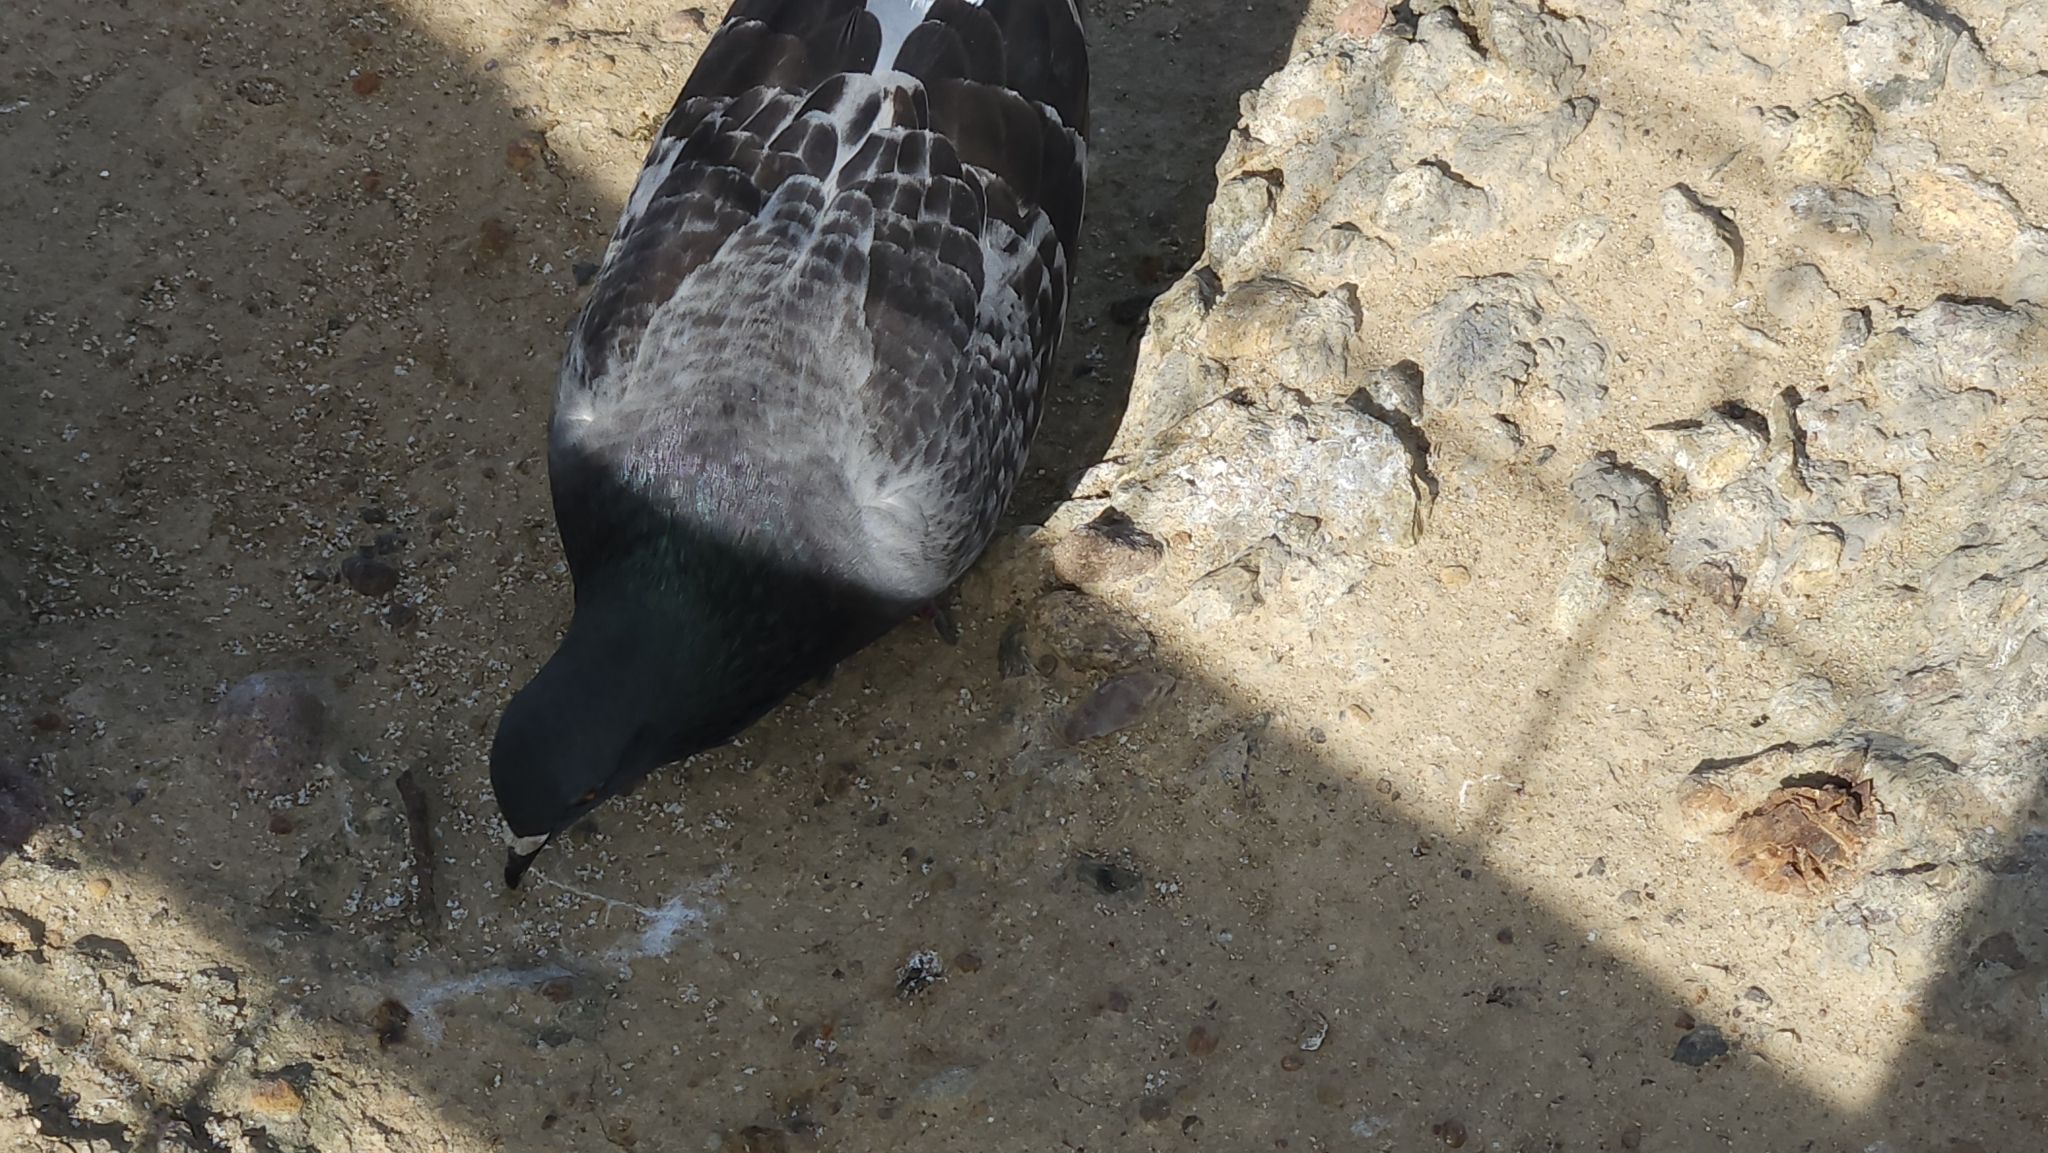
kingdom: Animalia
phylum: Chordata
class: Aves
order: Columbiformes
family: Columbidae
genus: Columba
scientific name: Columba livia
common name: Rock pigeon
